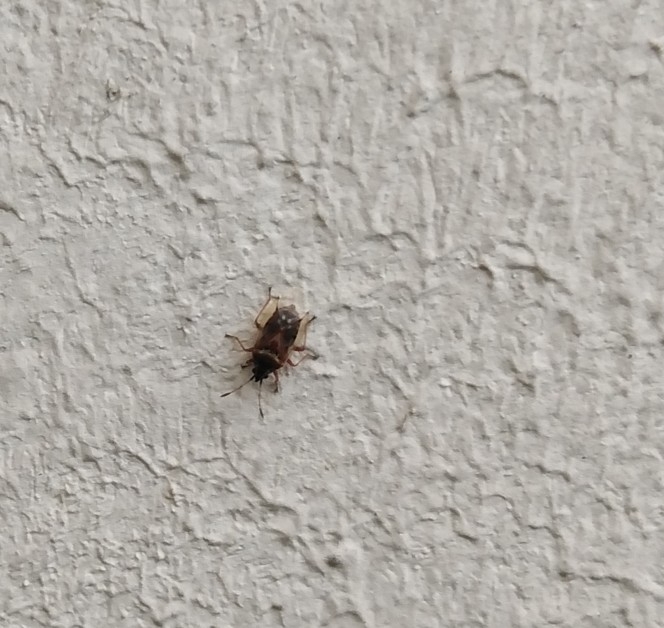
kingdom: Animalia
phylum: Arthropoda
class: Insecta
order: Hemiptera
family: Lygaeidae
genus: Kleidocerys
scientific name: Kleidocerys resedae
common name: Birch catkin bug
